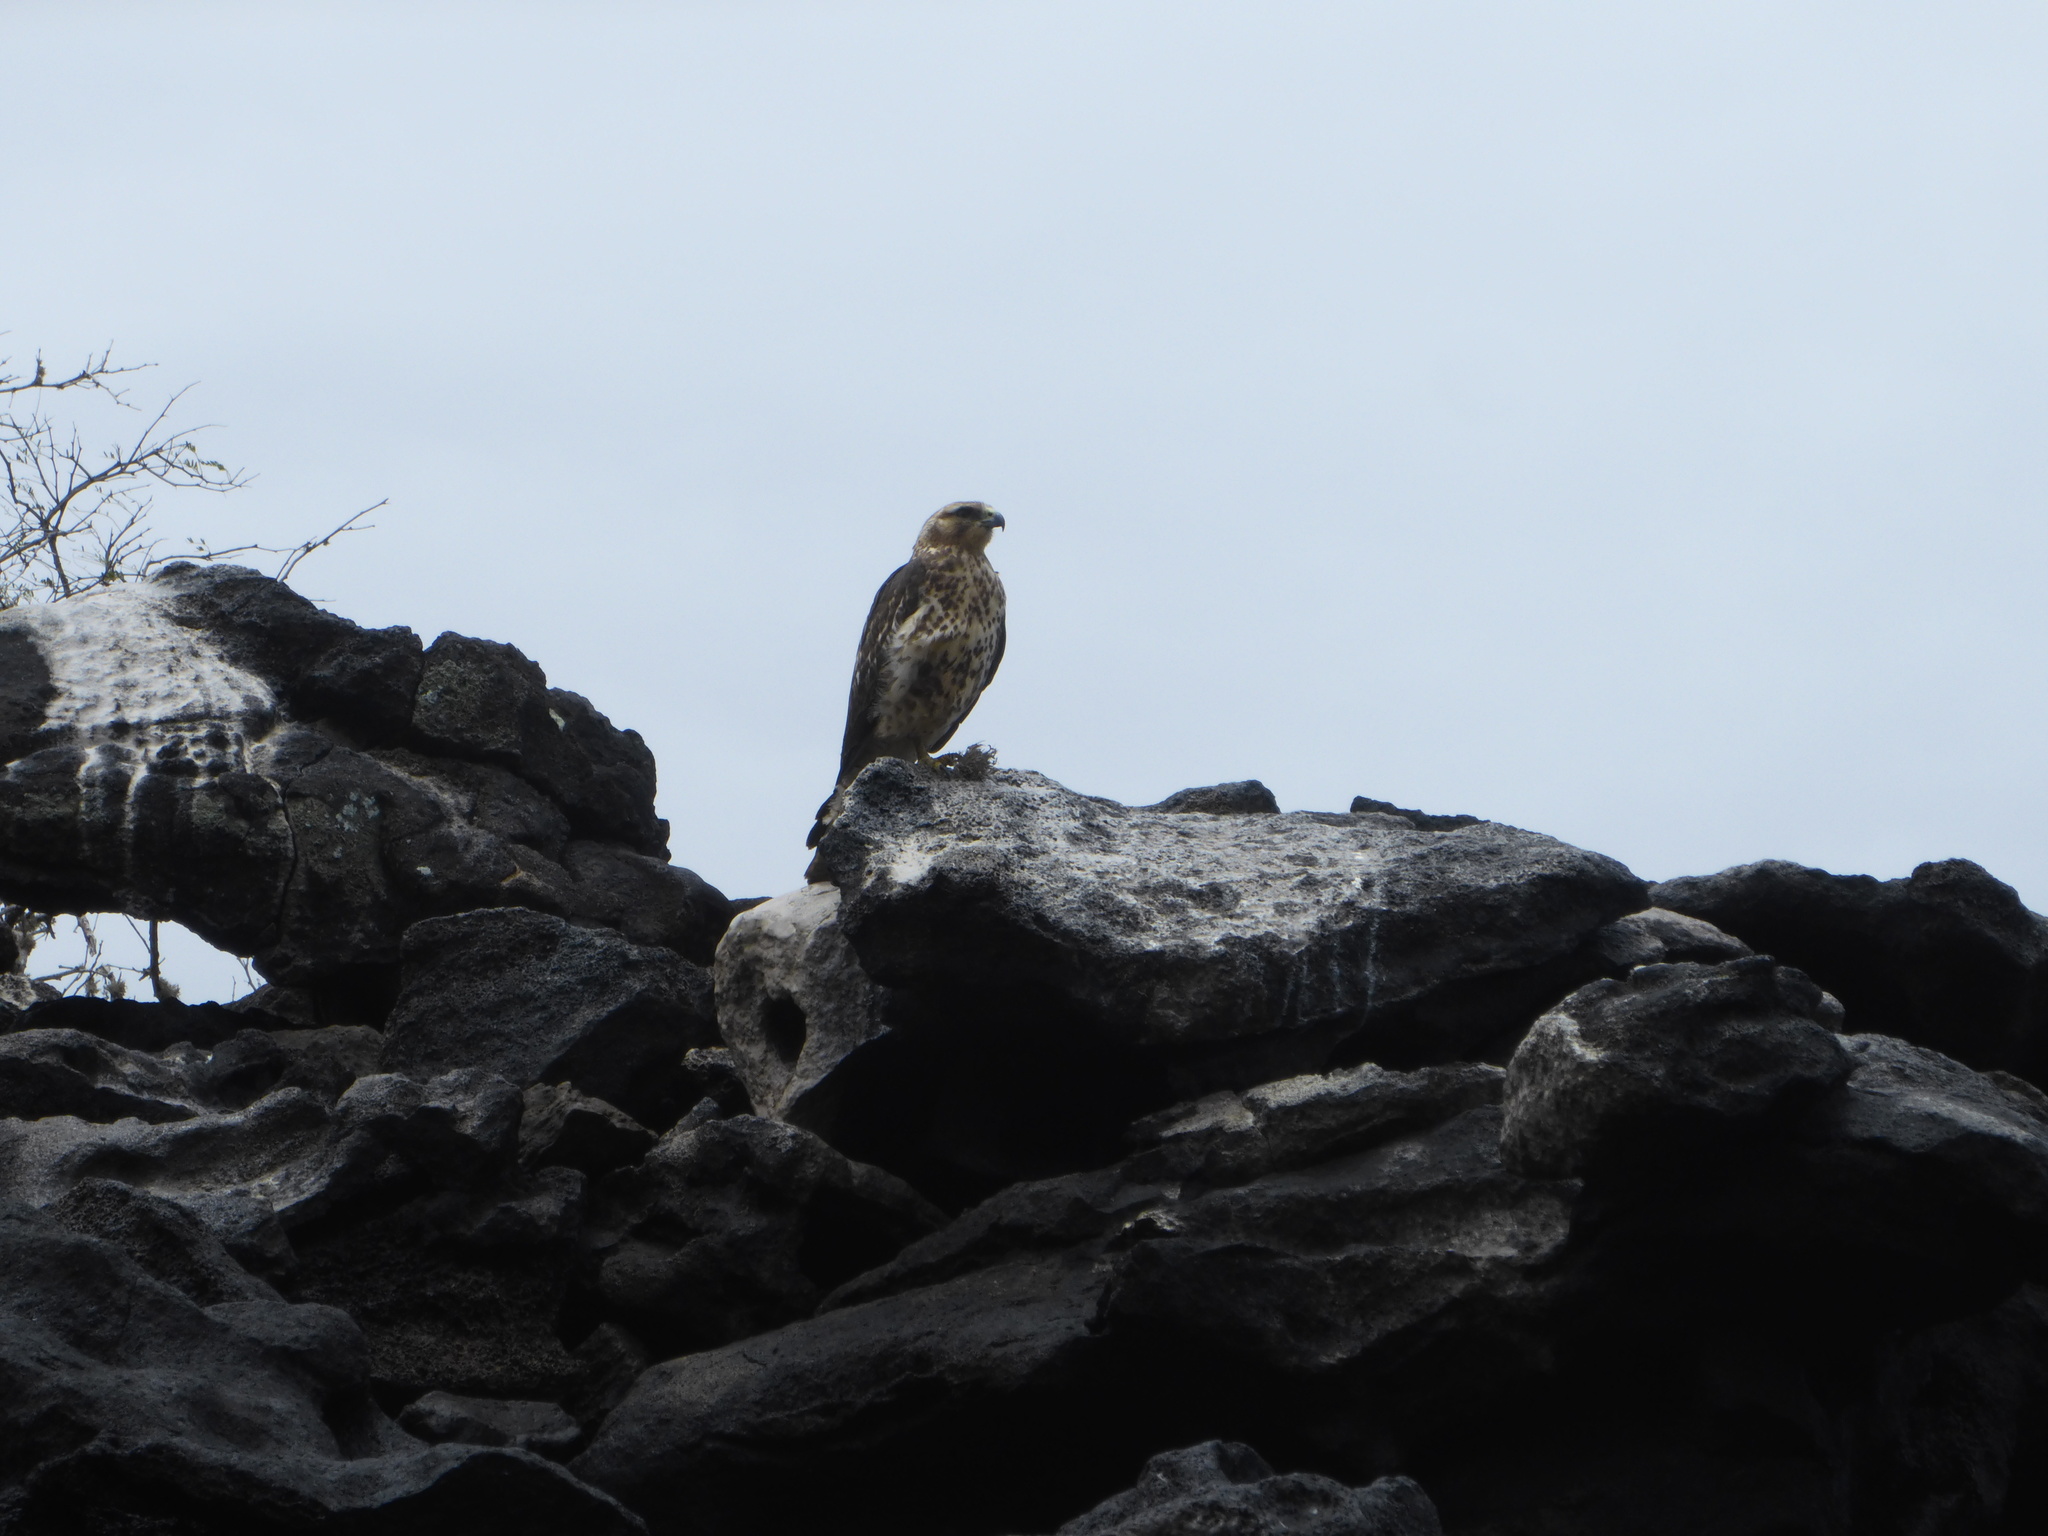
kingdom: Animalia
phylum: Chordata
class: Aves
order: Accipitriformes
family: Accipitridae
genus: Buteo
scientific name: Buteo galapagoensis
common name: Galapagos hawk
